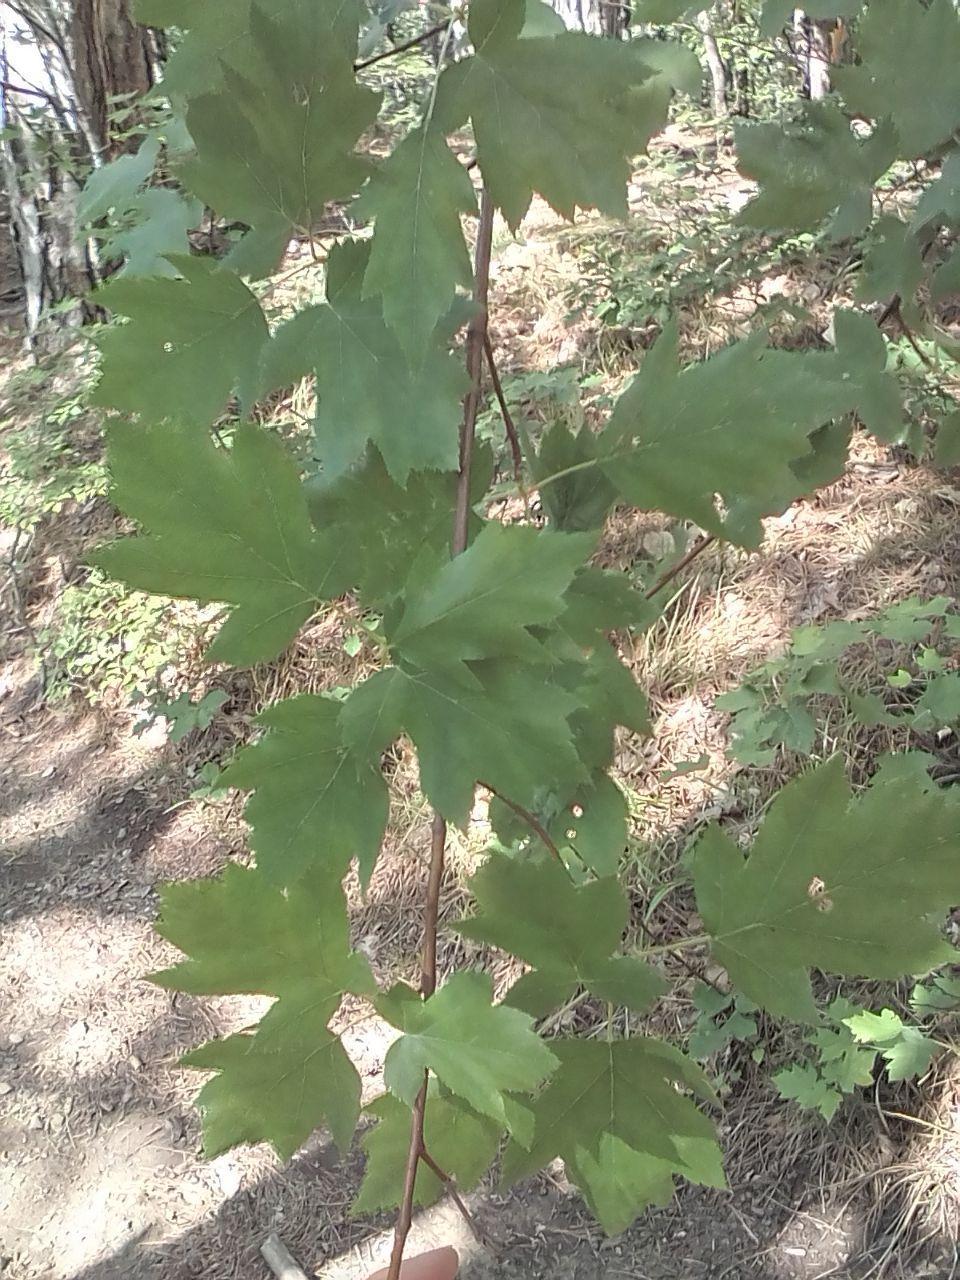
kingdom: Plantae
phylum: Tracheophyta
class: Magnoliopsida
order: Rosales
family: Rosaceae
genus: Torminalis
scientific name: Torminalis glaberrima
